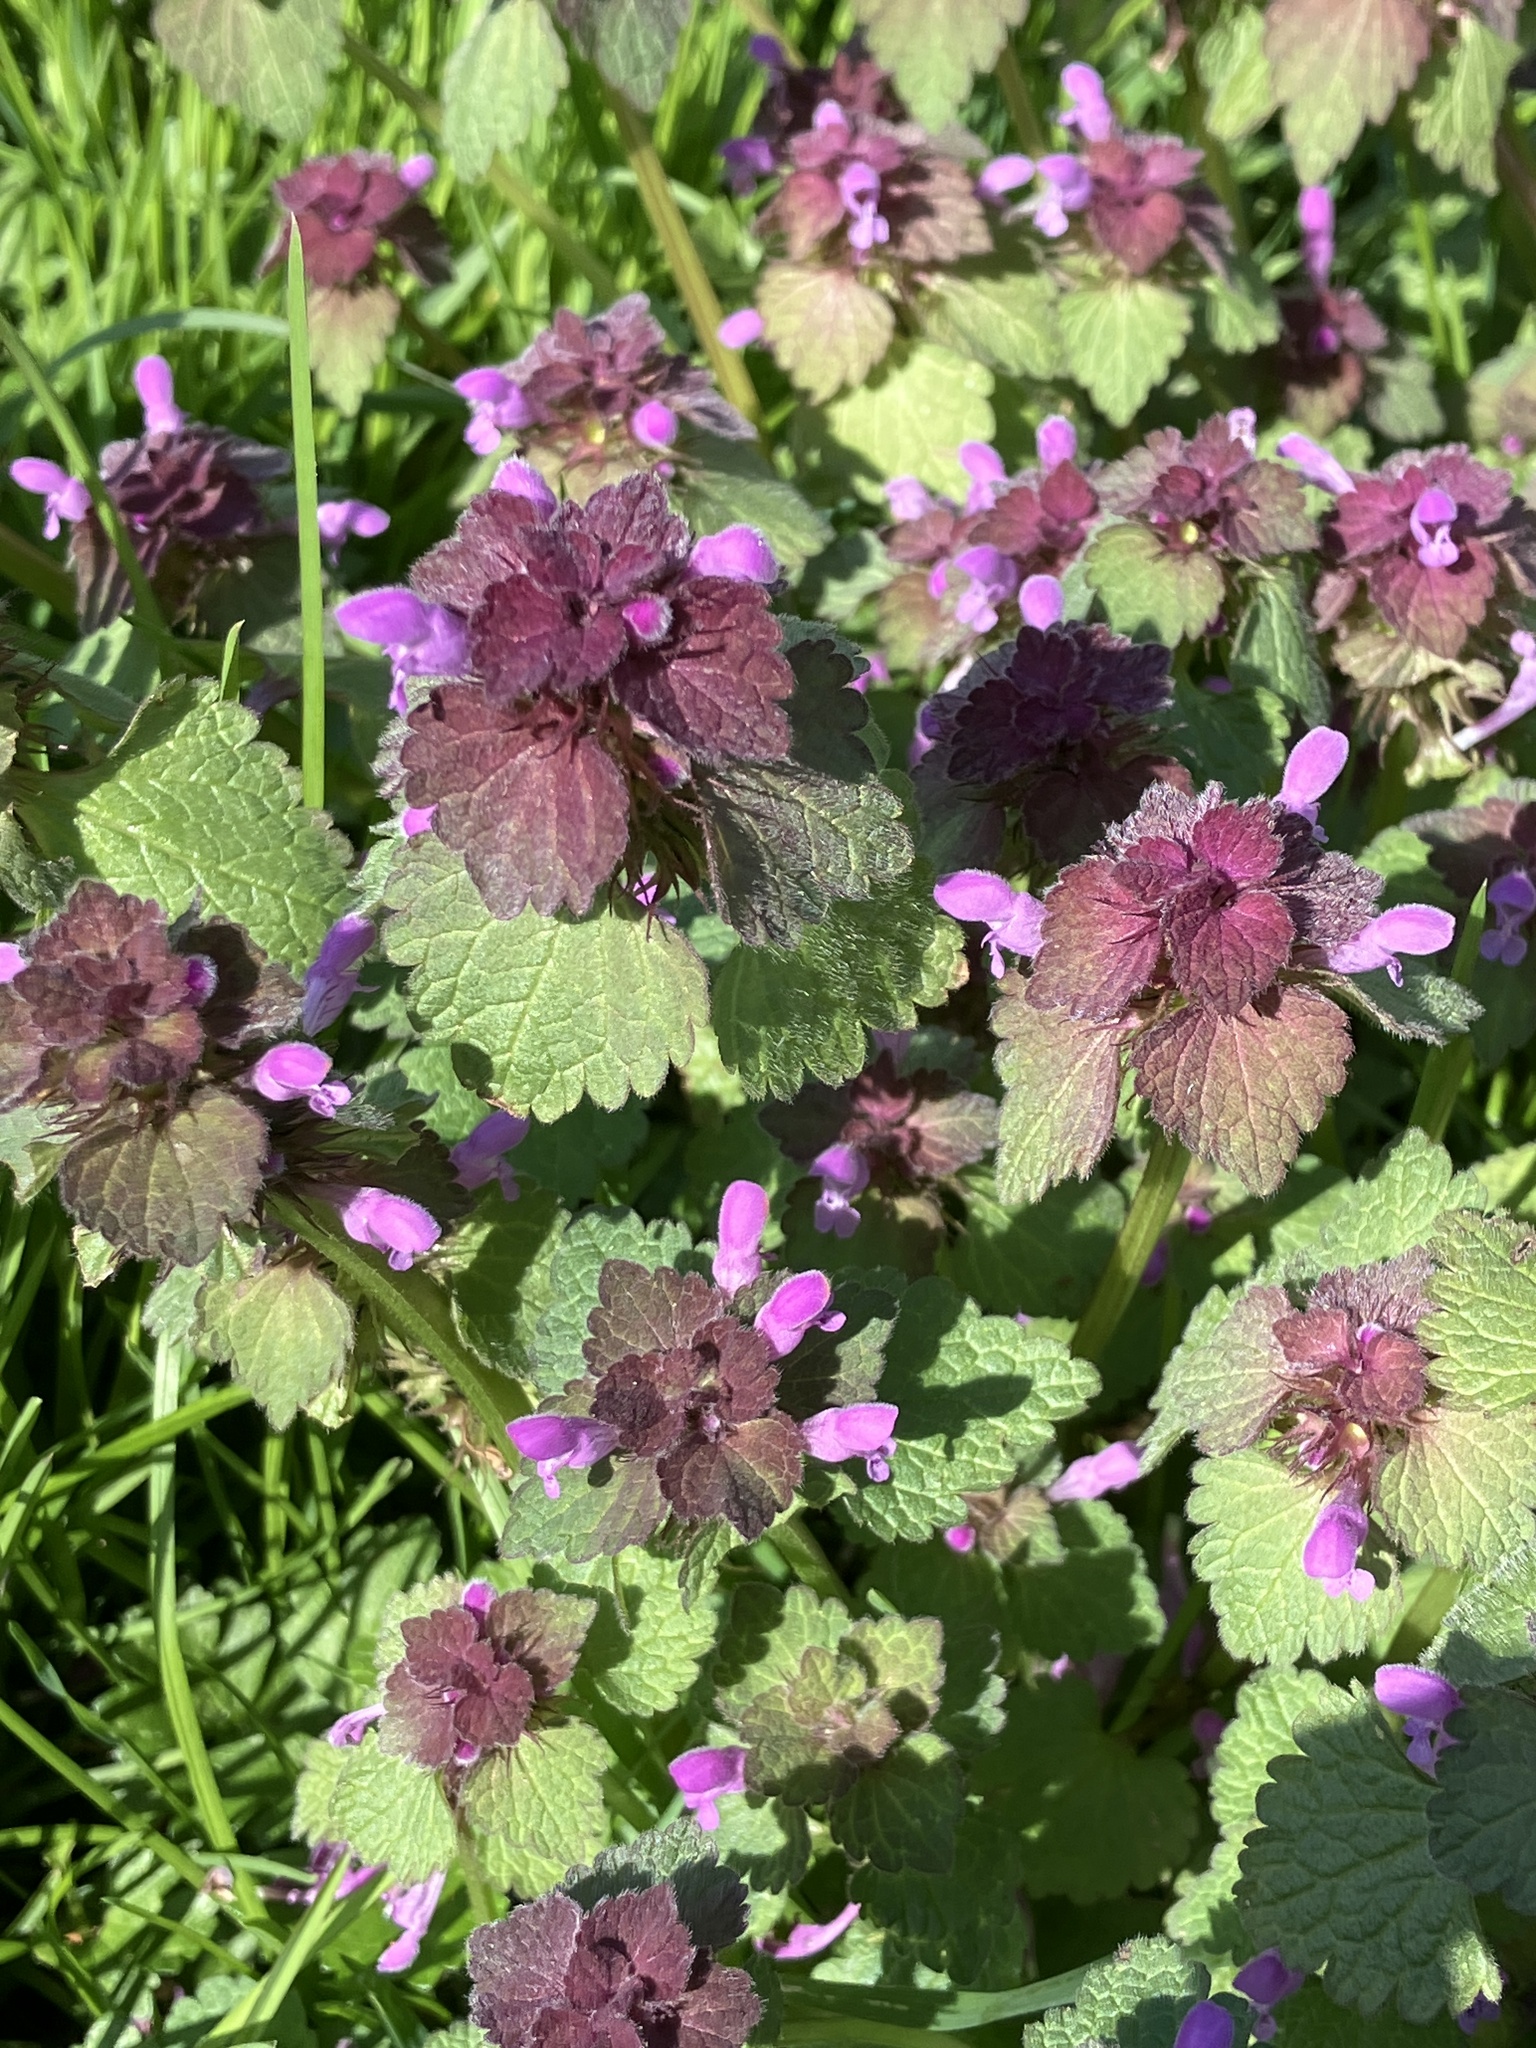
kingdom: Plantae
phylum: Tracheophyta
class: Magnoliopsida
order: Lamiales
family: Lamiaceae
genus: Lamium
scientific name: Lamium purpureum
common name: Red dead-nettle
